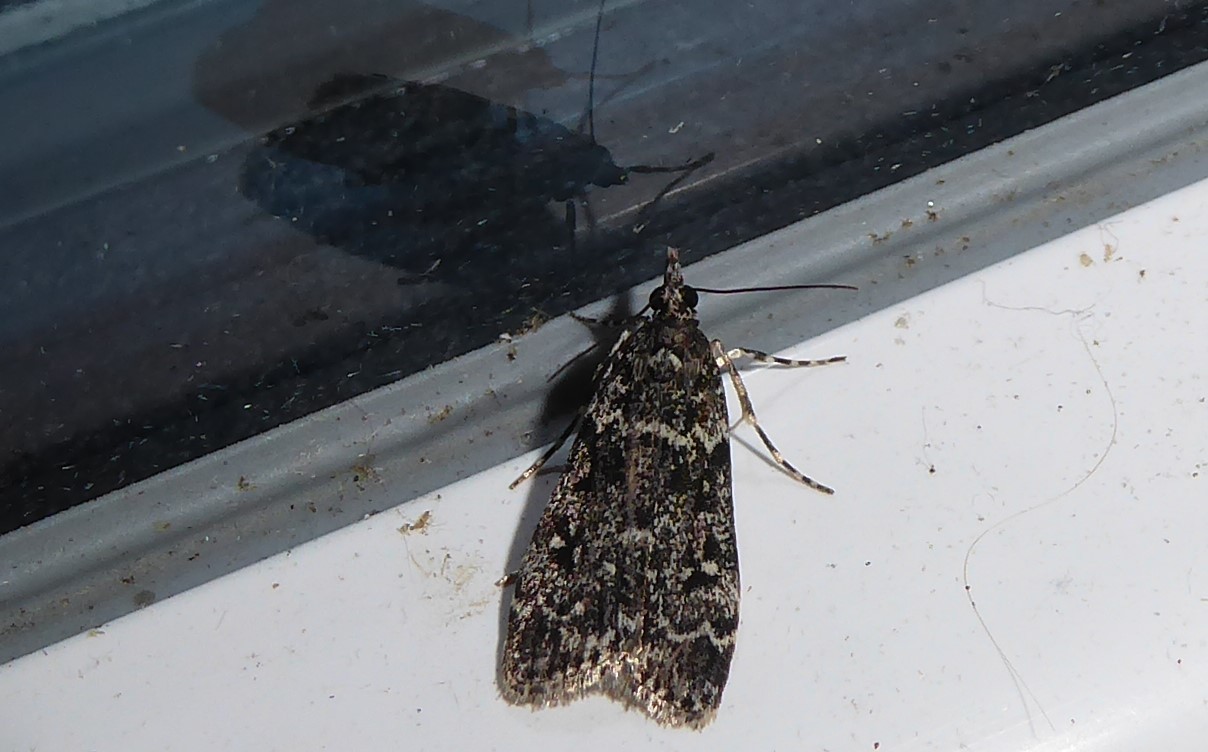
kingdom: Animalia
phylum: Arthropoda
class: Insecta
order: Lepidoptera
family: Crambidae
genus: Eudonia
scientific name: Eudonia philerga
